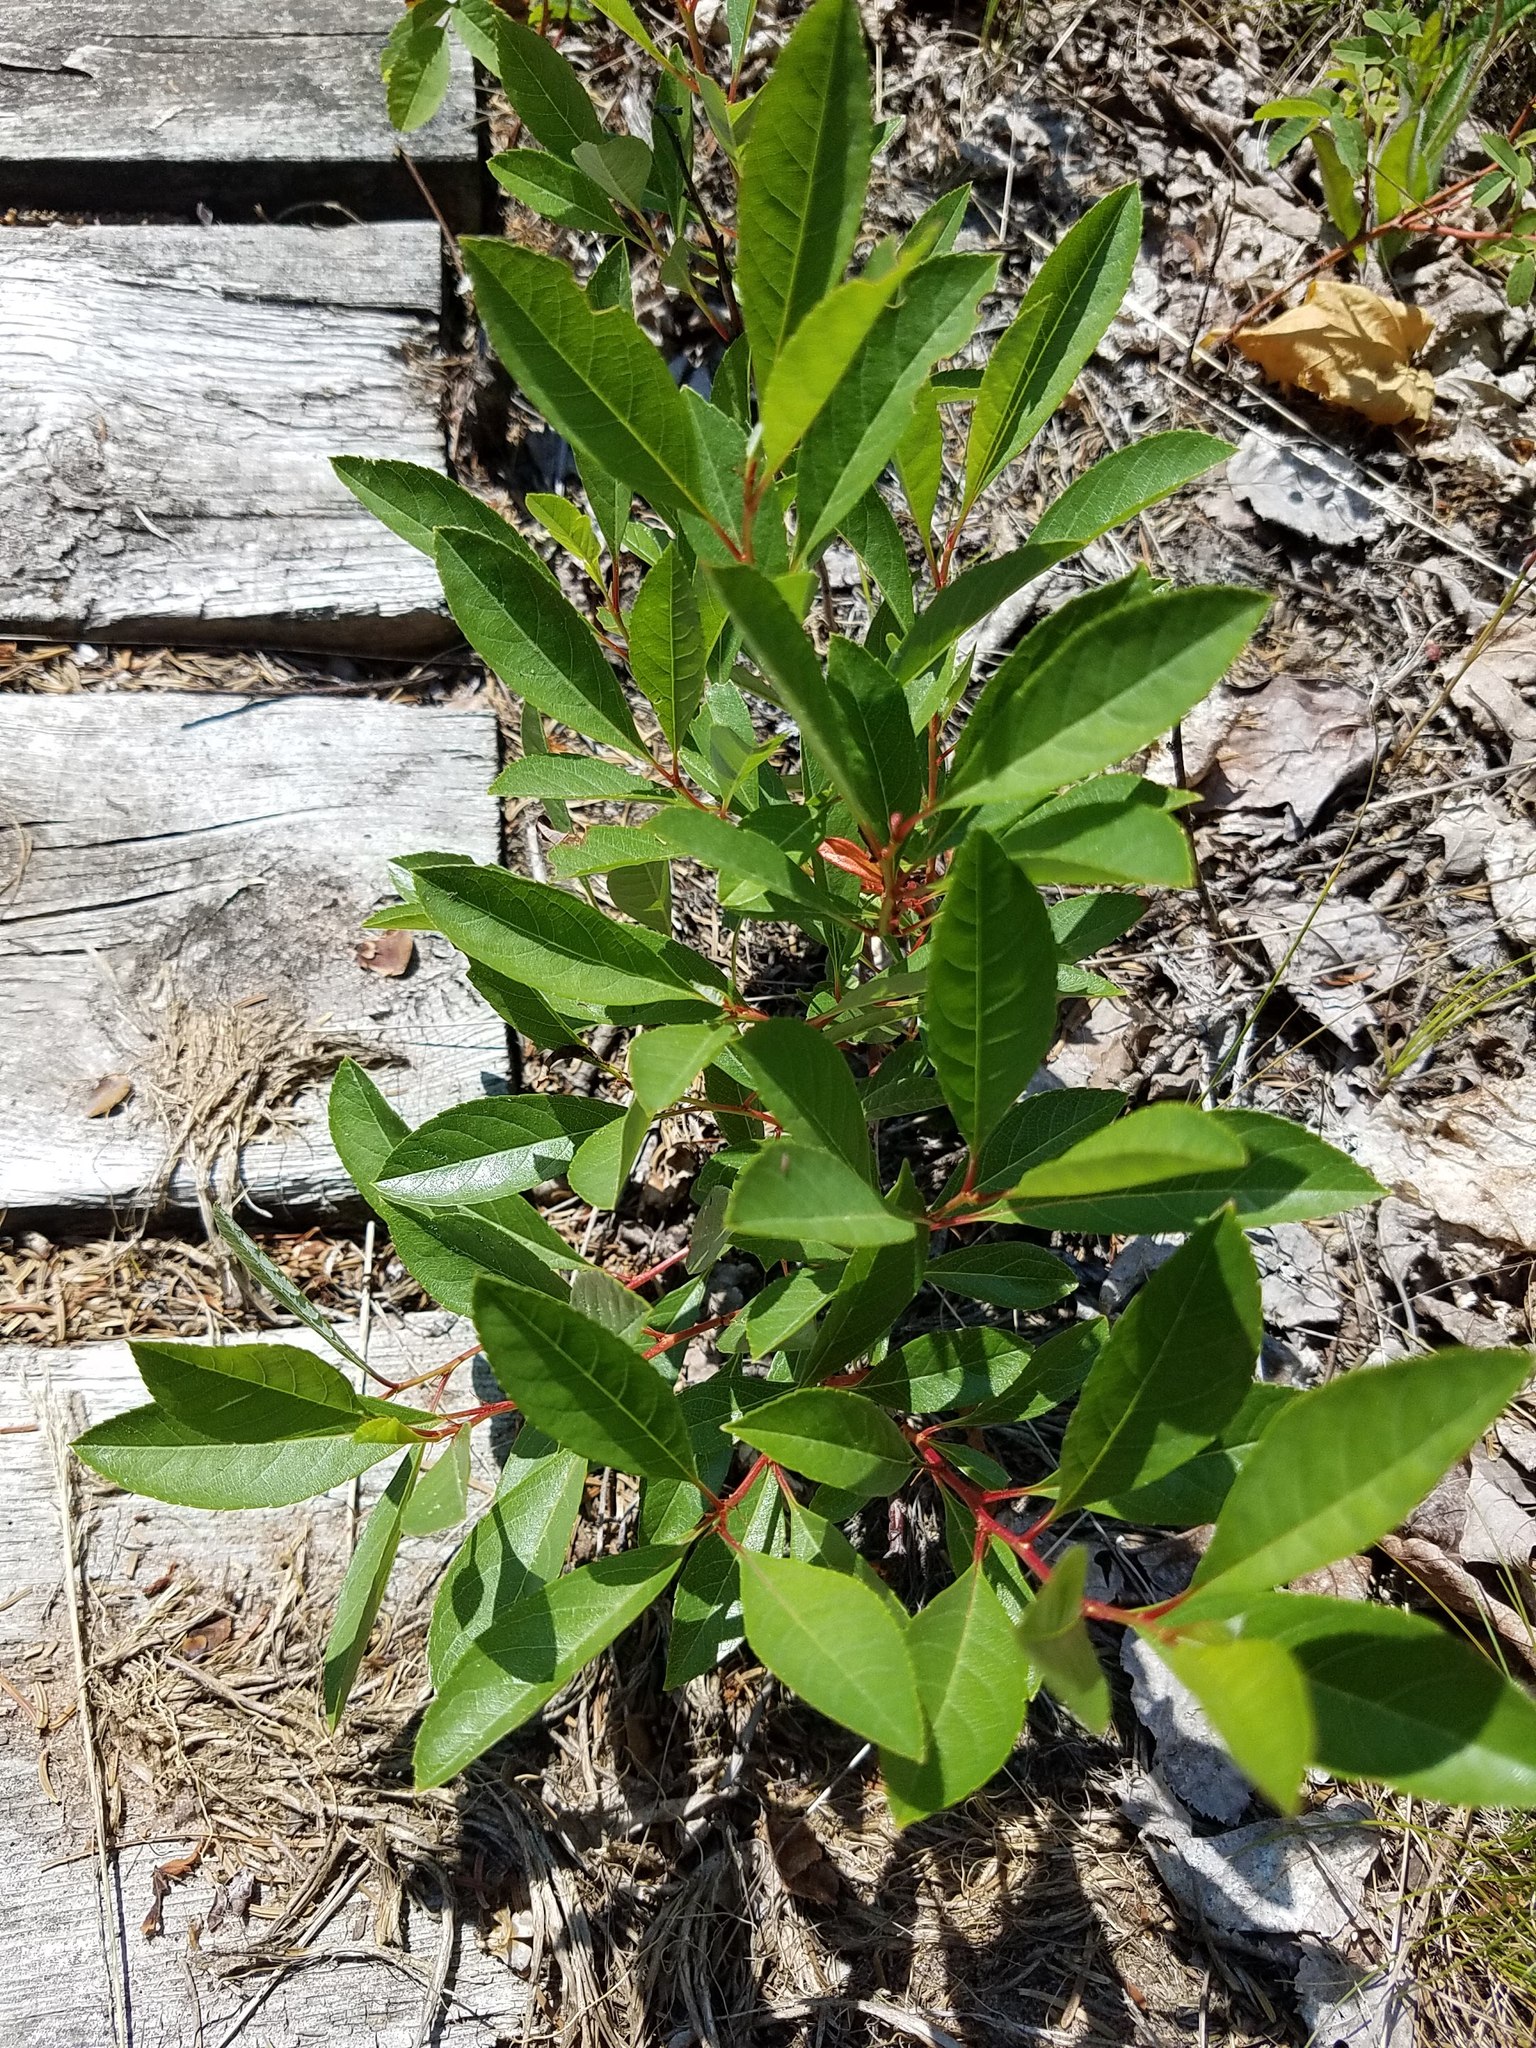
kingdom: Plantae
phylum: Tracheophyta
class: Magnoliopsida
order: Rosales
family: Rosaceae
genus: Prunus
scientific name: Prunus pumila
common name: Dwarf cherry
